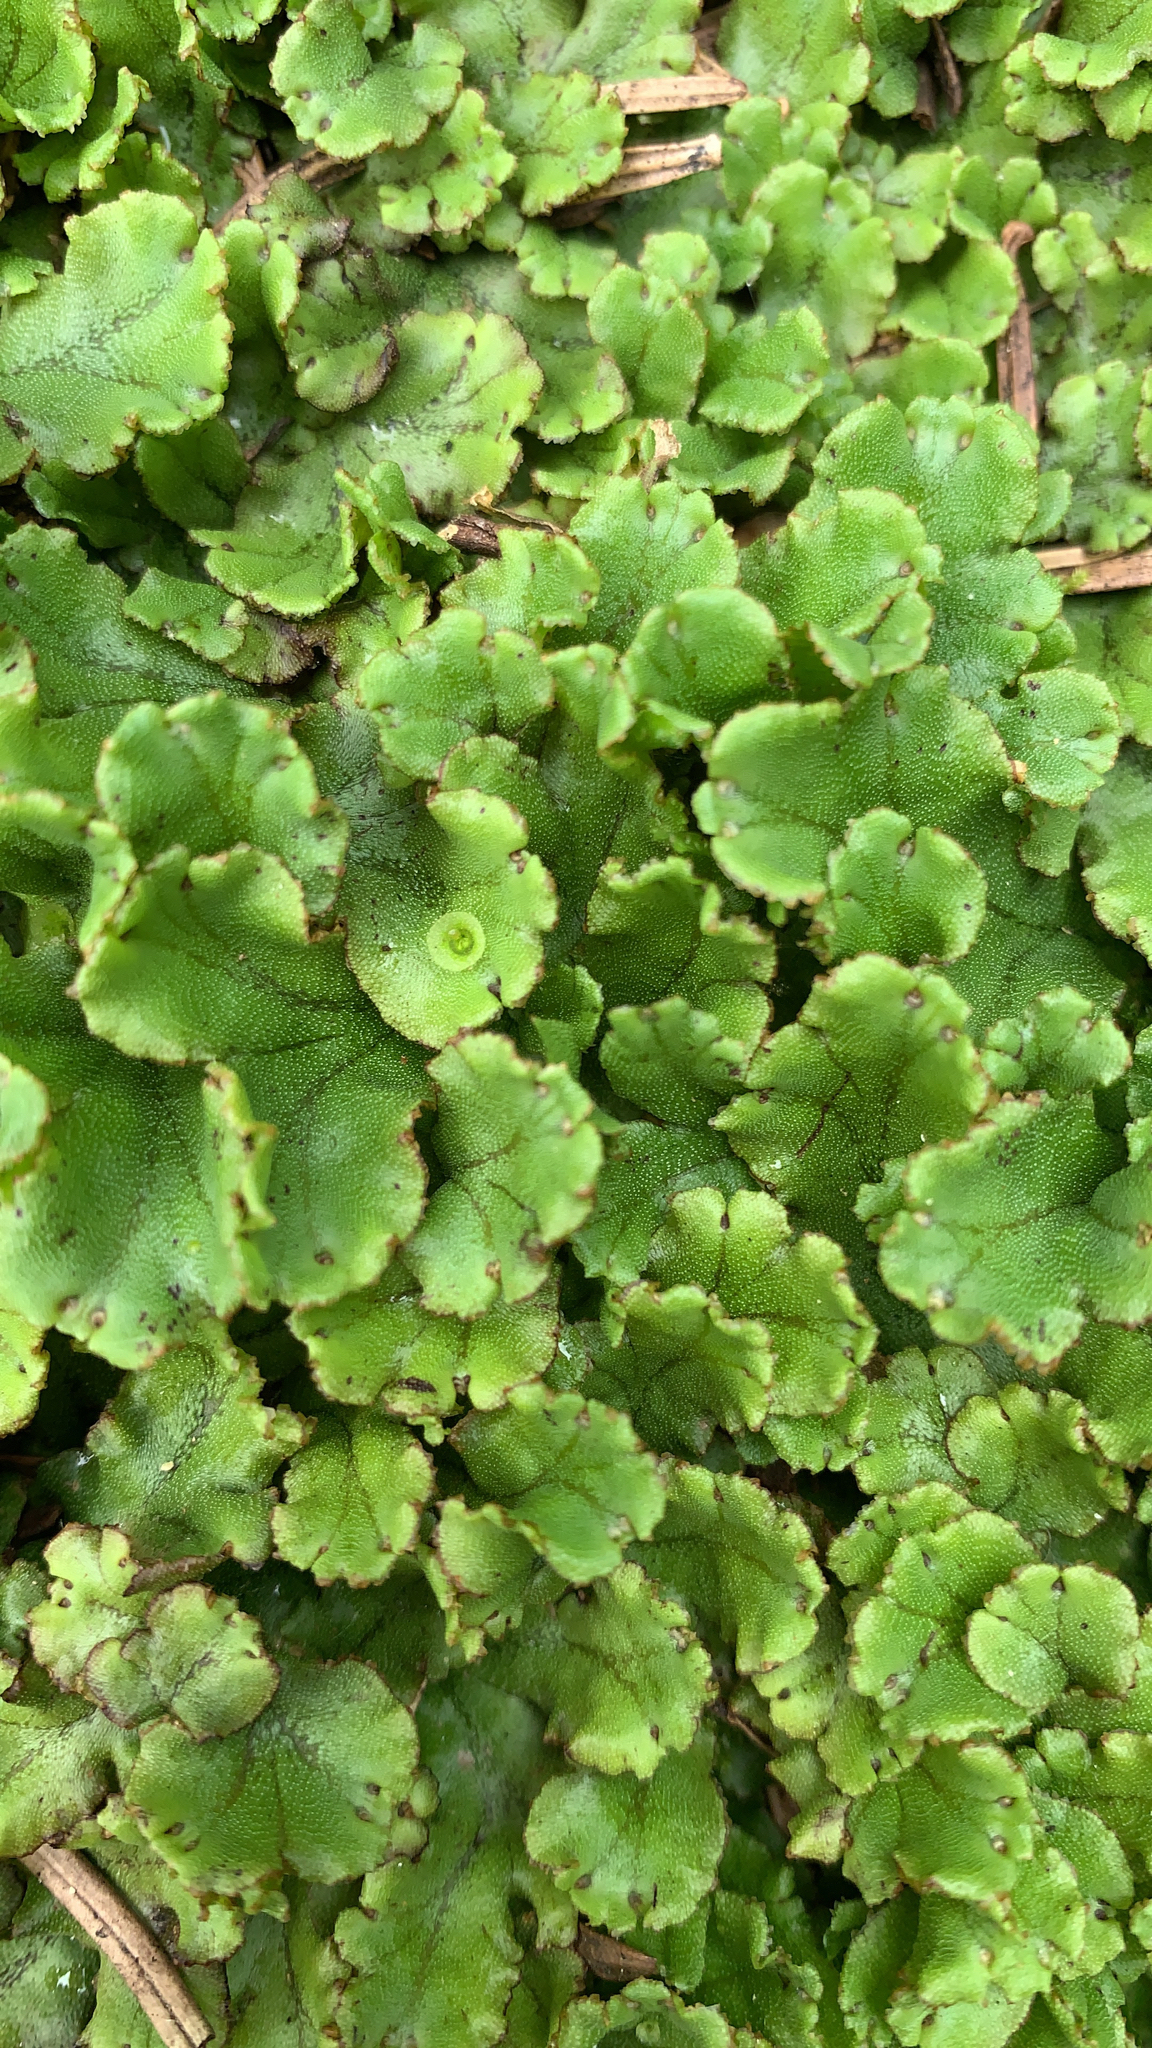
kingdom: Plantae
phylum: Marchantiophyta
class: Marchantiopsida
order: Marchantiales
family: Marchantiaceae
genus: Marchantia
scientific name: Marchantia polymorpha
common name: Common liverwort
